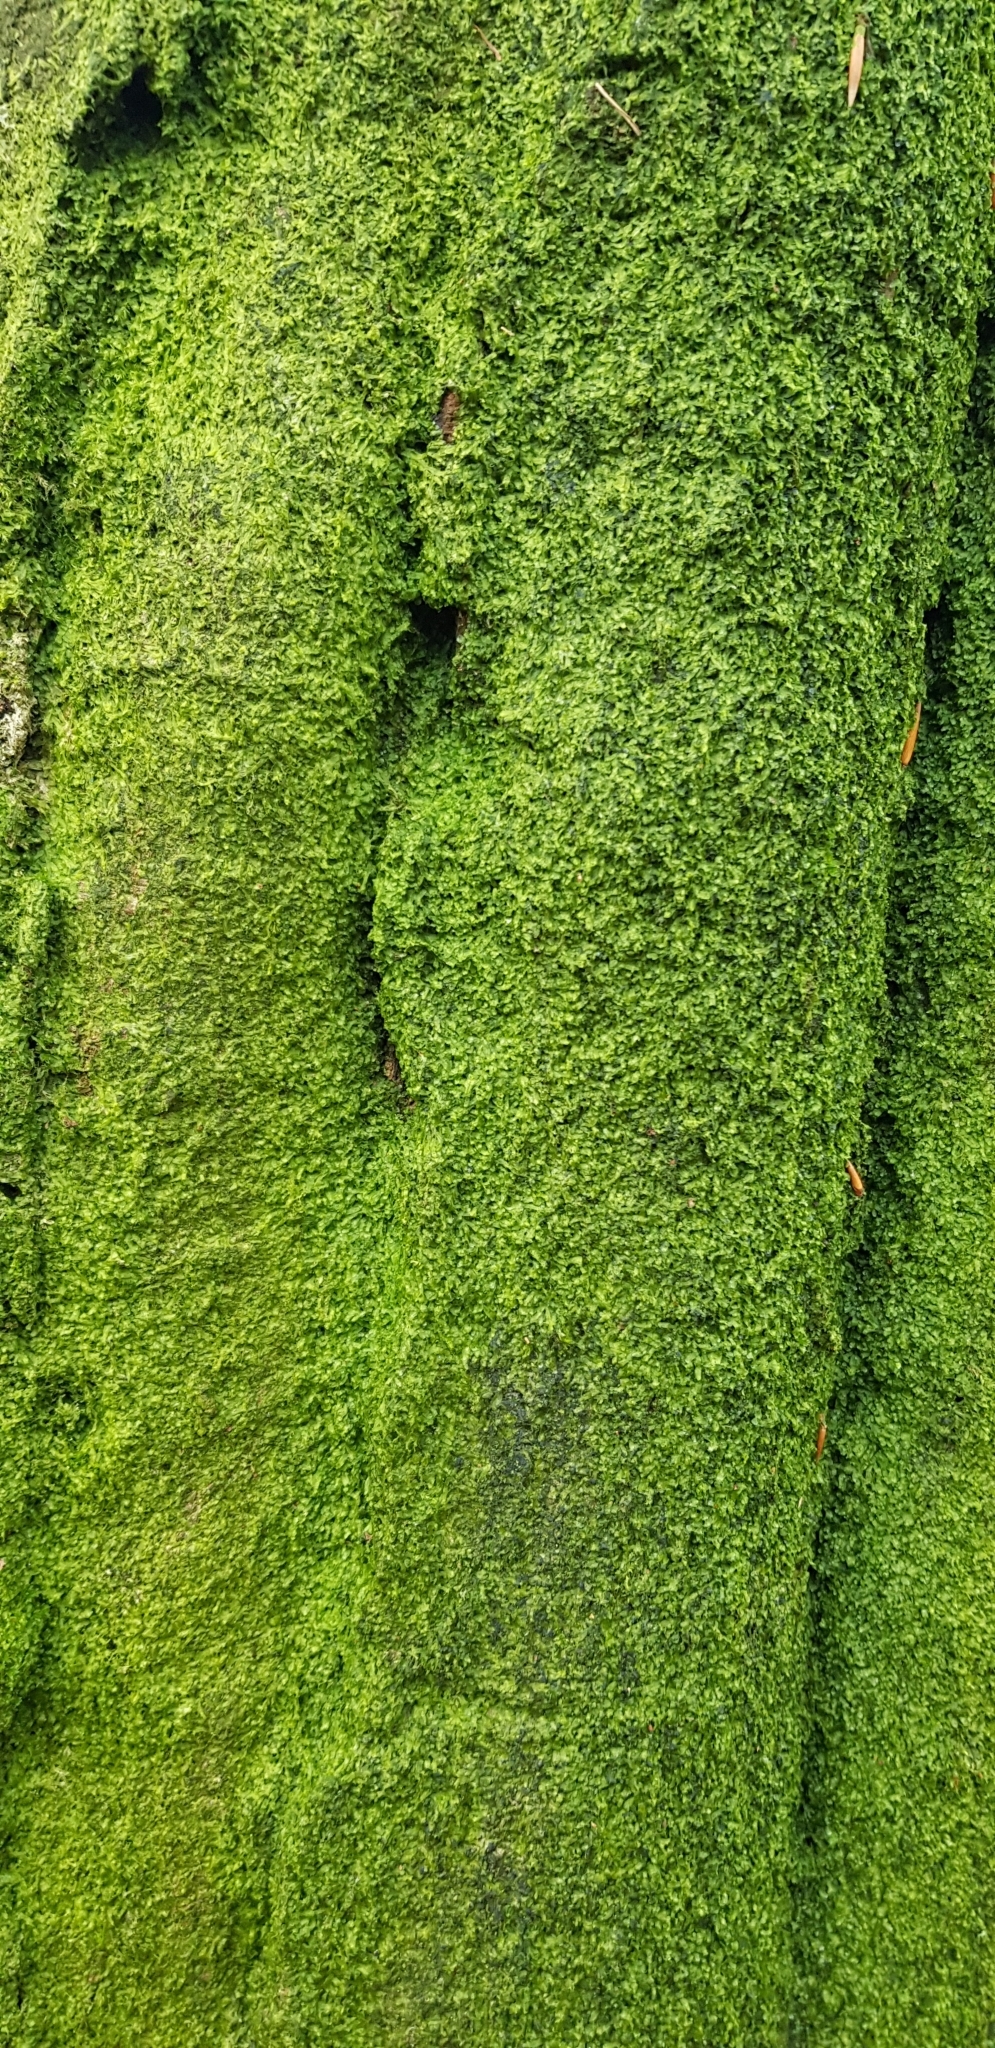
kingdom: Plantae
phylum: Marchantiophyta
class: Jungermanniopsida
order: Metzgeriales
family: Metzgeriaceae
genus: Metzgeria
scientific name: Metzgeria furcata
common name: Forked veilwort
